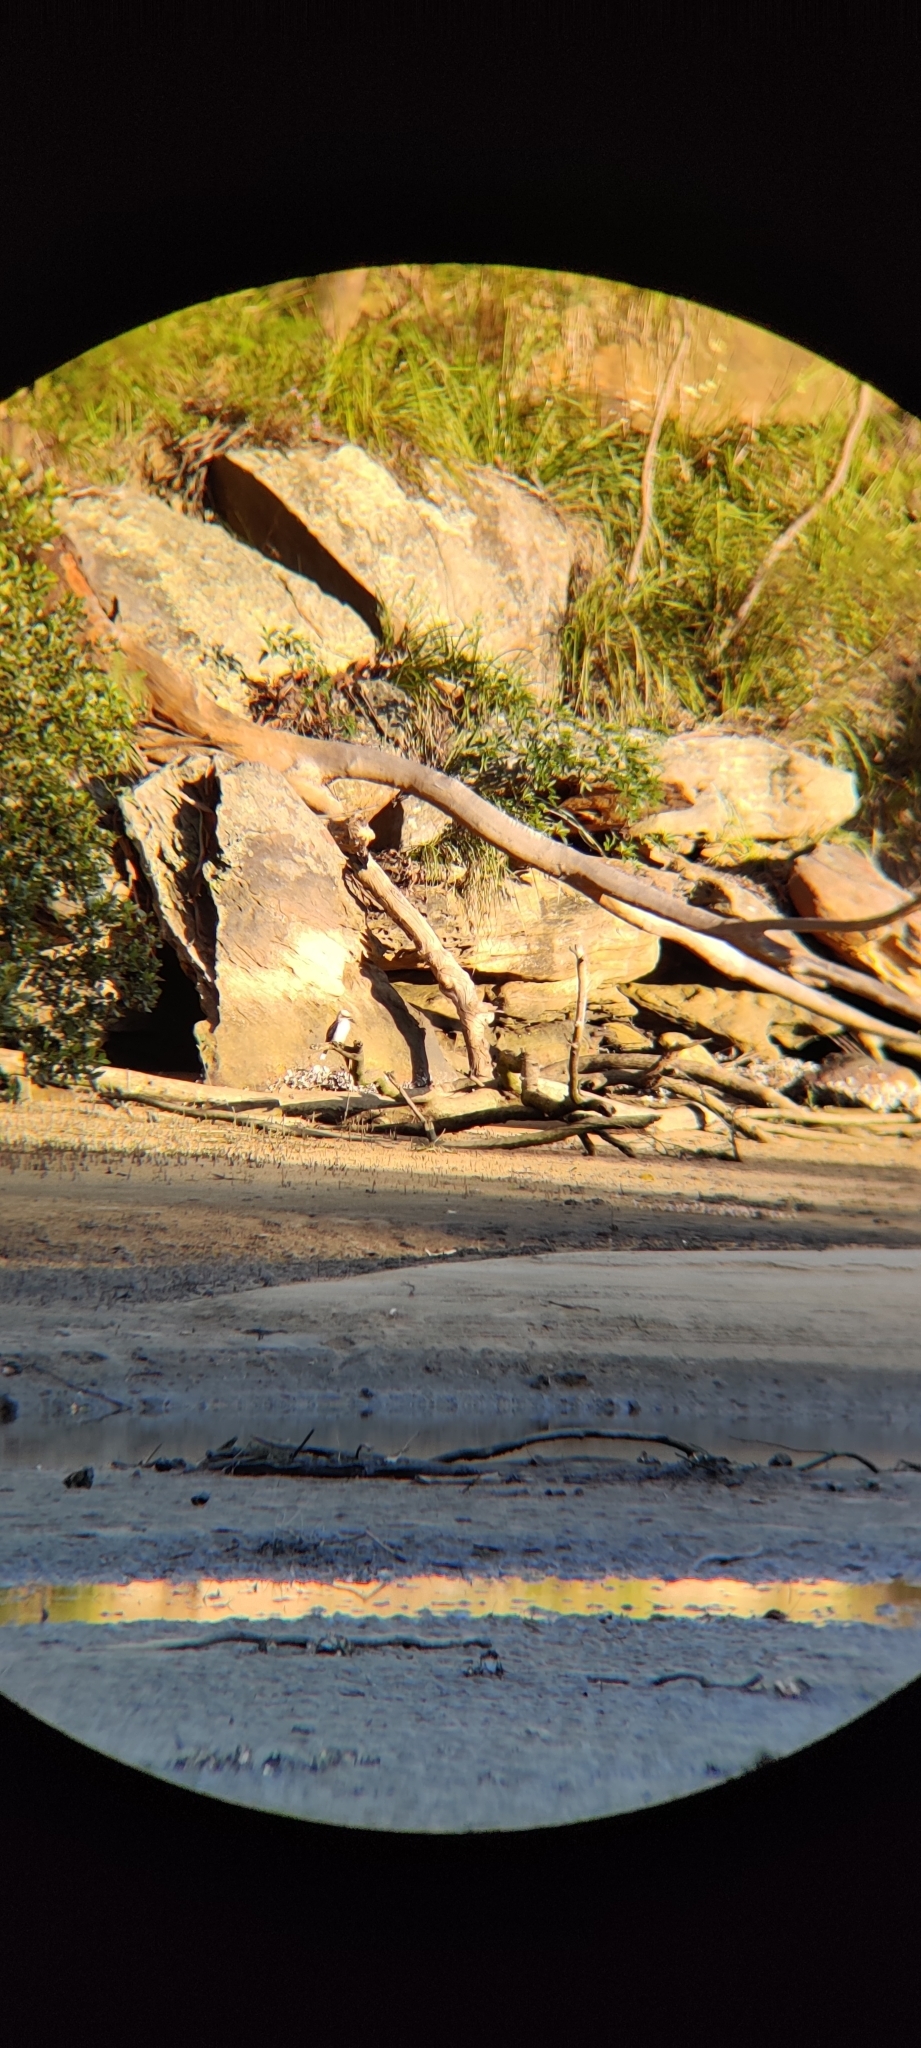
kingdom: Animalia
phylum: Chordata
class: Aves
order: Coraciiformes
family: Alcedinidae
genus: Dacelo
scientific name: Dacelo novaeguineae
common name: Laughing kookaburra
